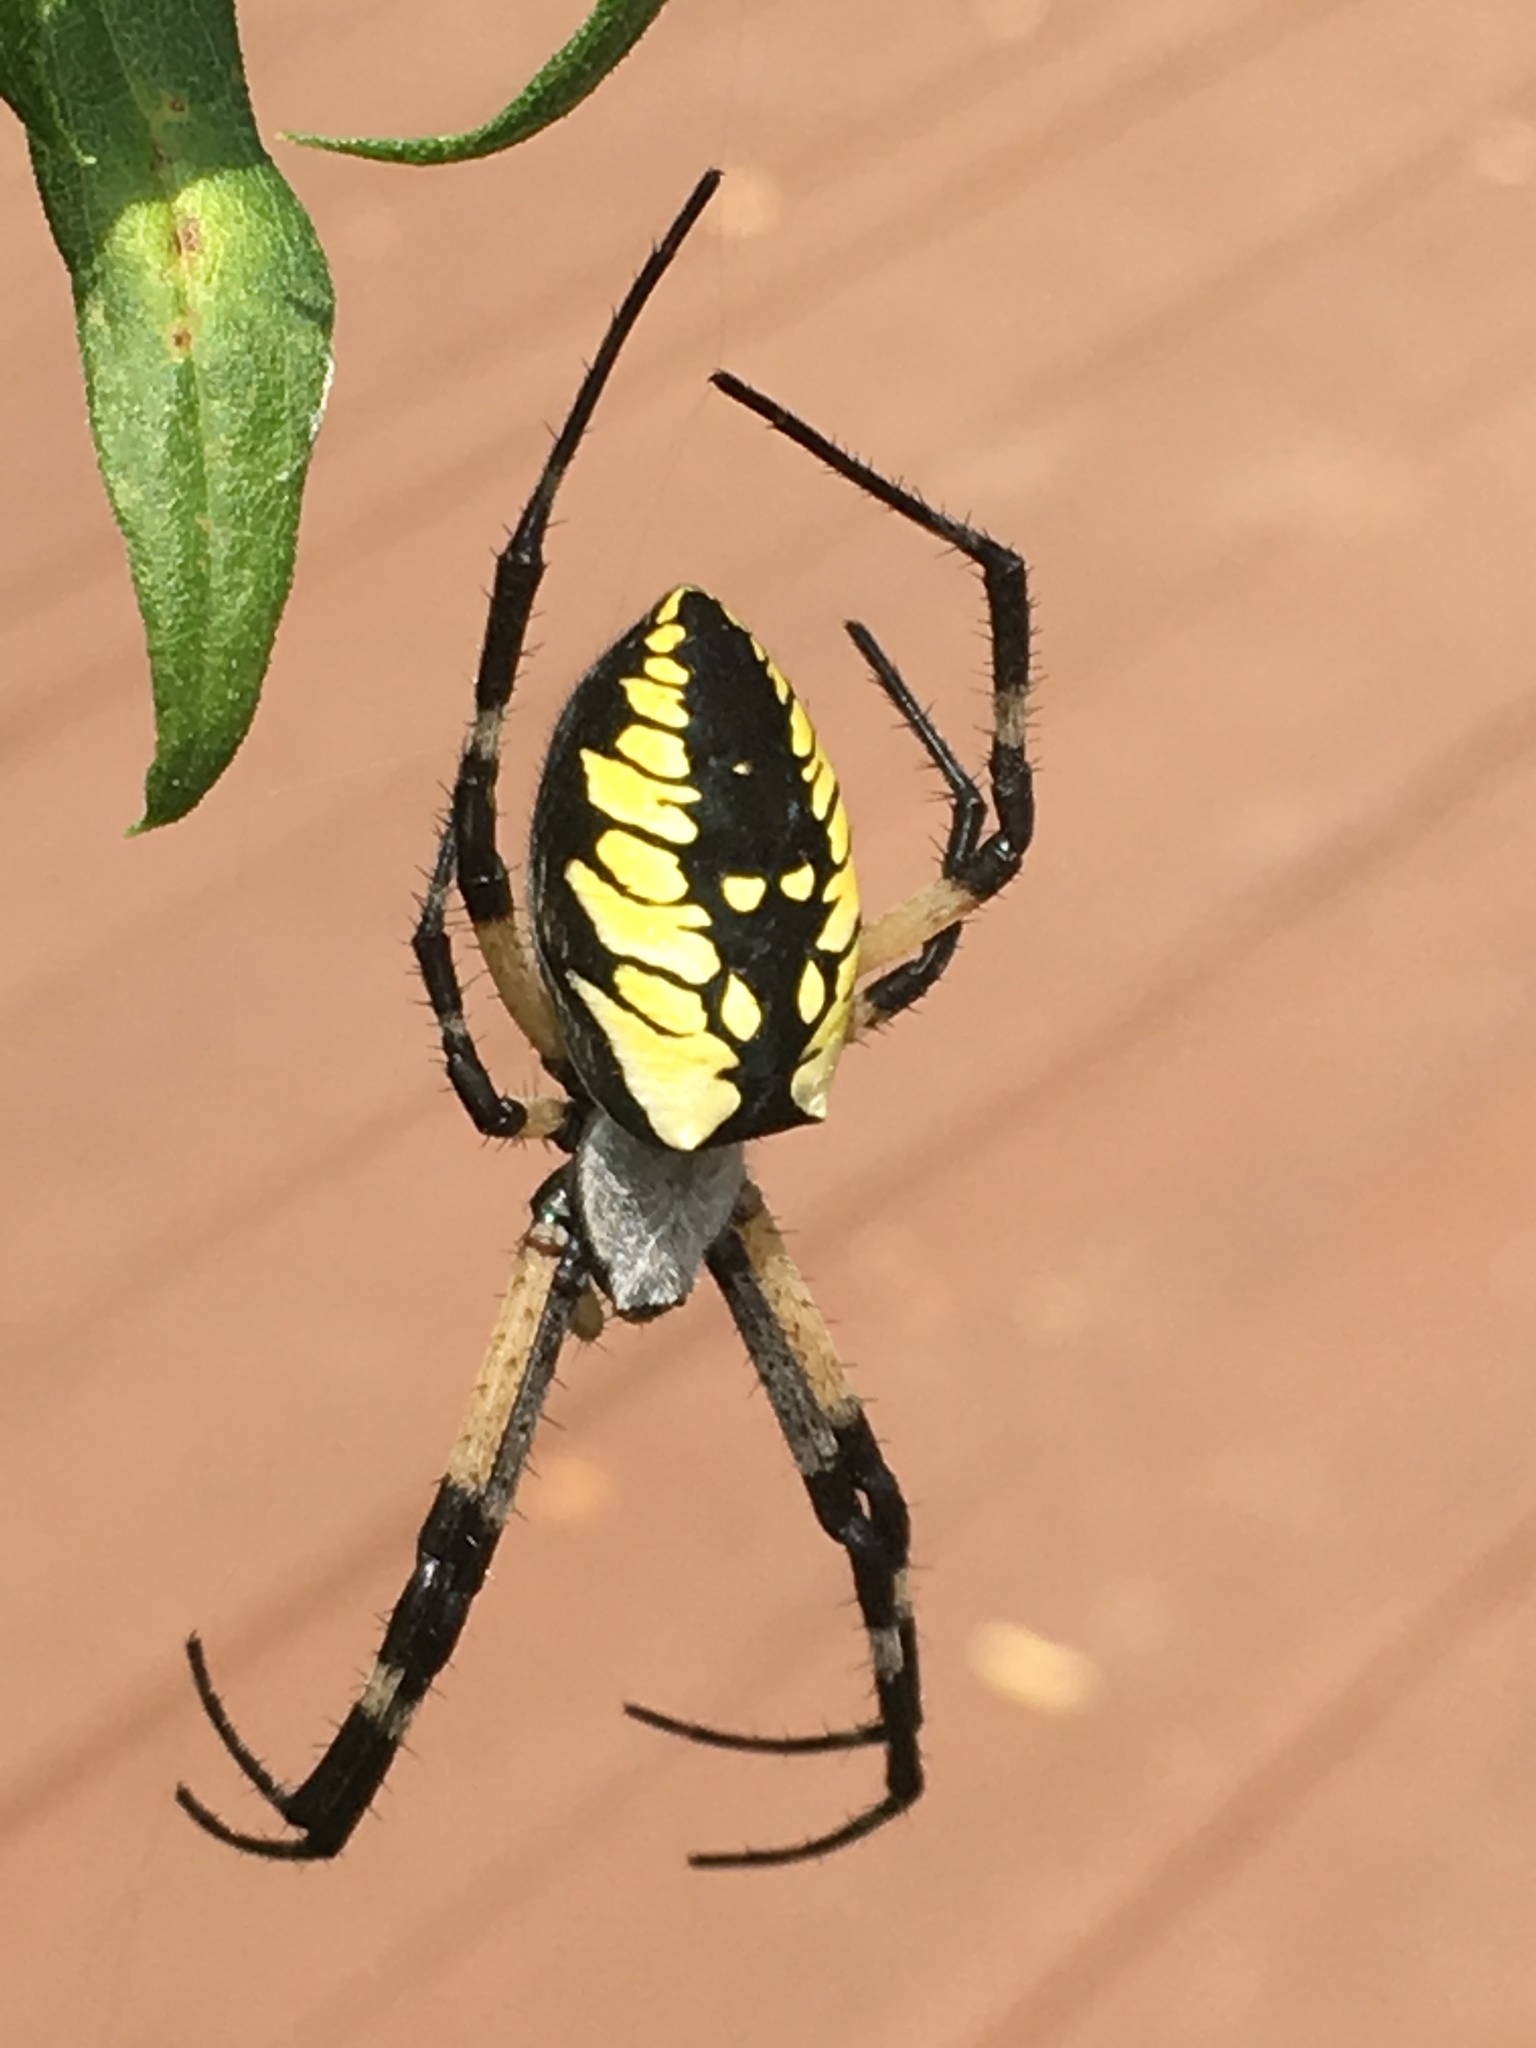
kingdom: Animalia
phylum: Arthropoda
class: Arachnida
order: Araneae
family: Araneidae
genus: Argiope
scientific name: Argiope aurantia
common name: Orb weavers
